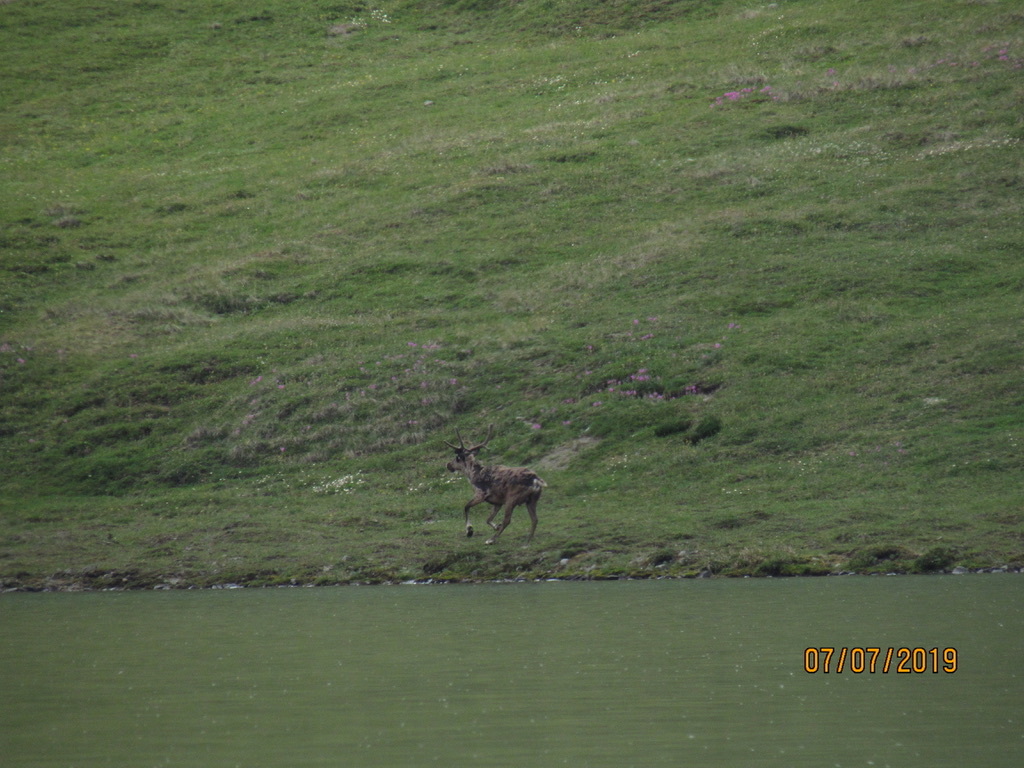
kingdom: Animalia
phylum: Chordata
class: Mammalia
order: Artiodactyla
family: Cervidae
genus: Rangifer
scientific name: Rangifer tarandus
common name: Reindeer
